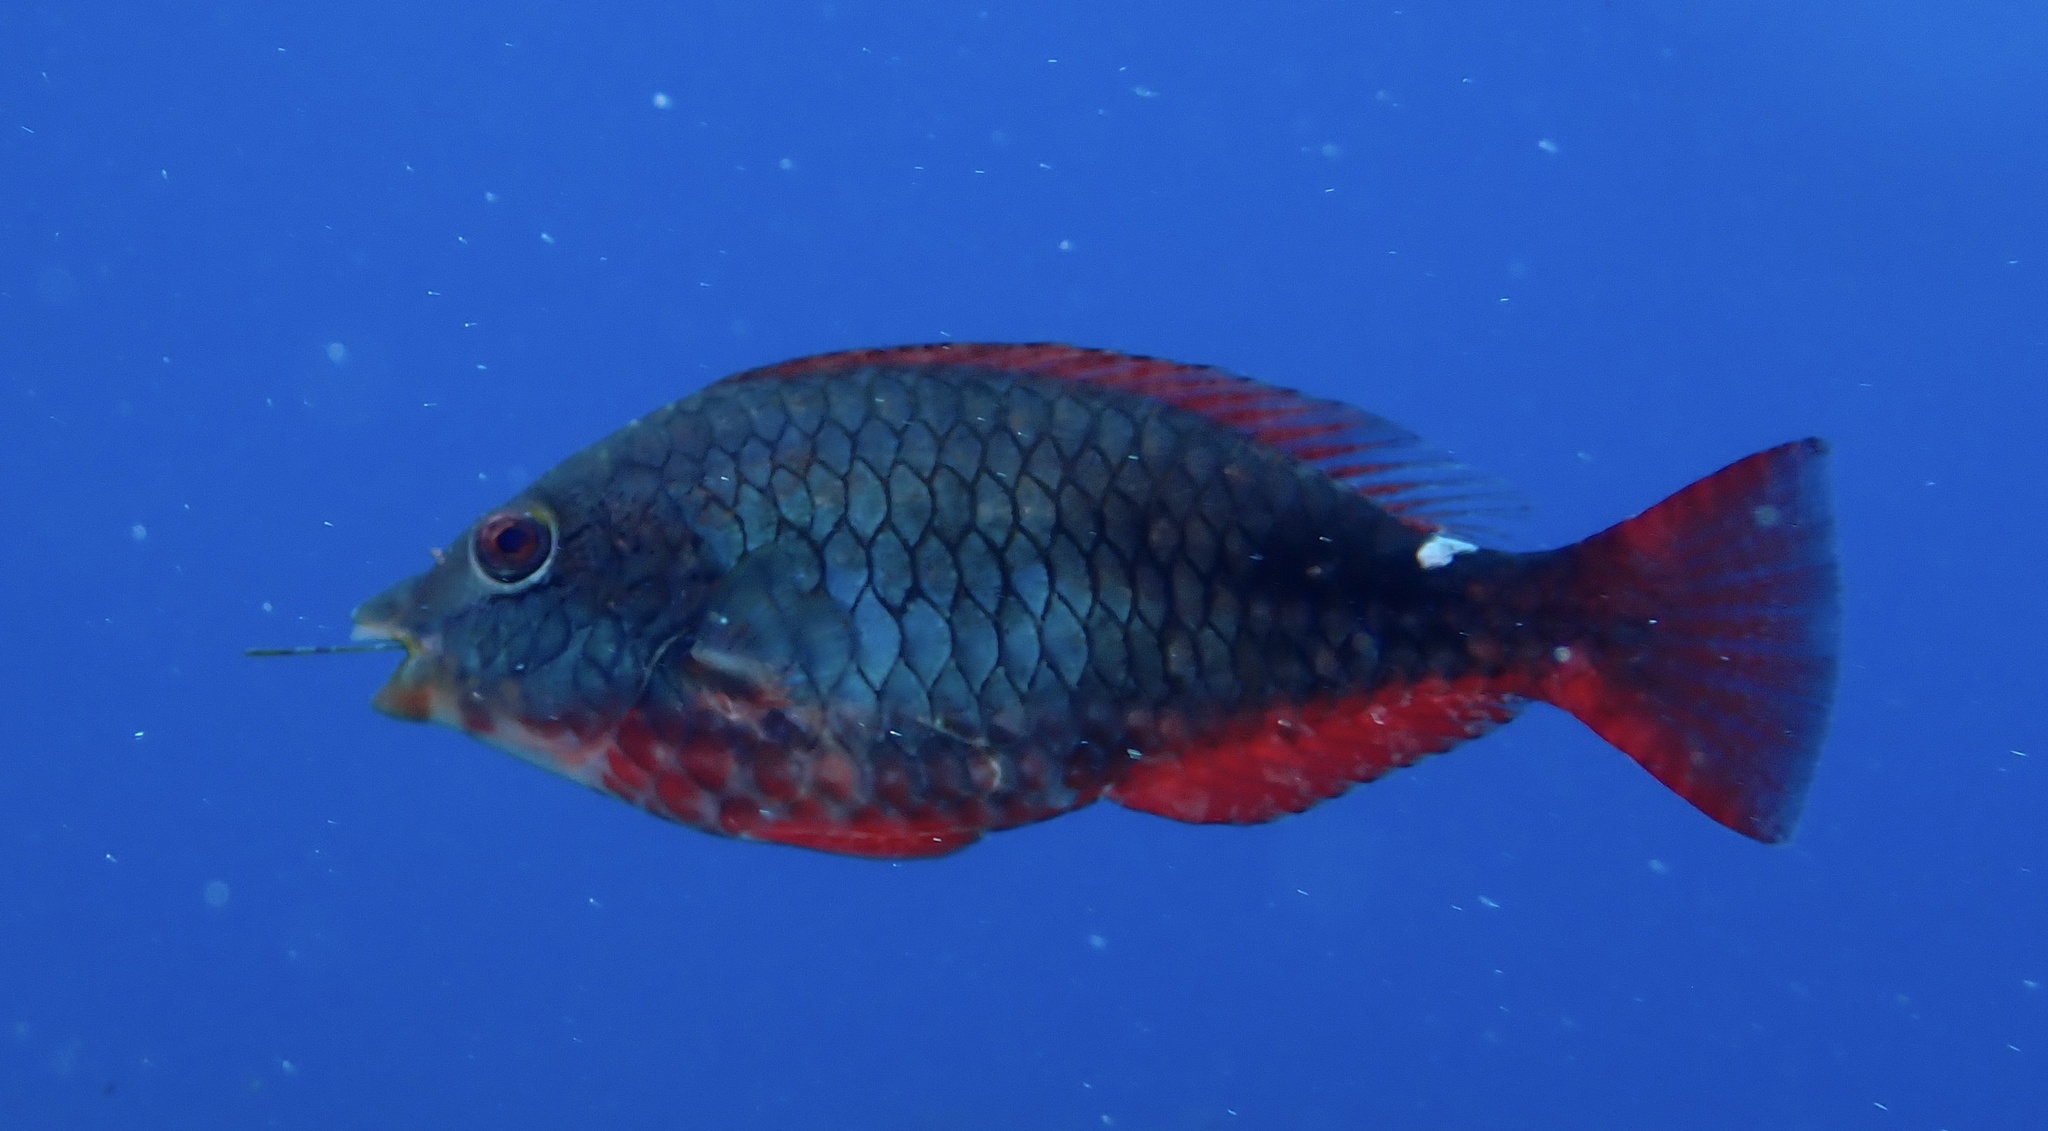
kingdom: Animalia
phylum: Chordata
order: Perciformes
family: Scaridae
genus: Sparisoma
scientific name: Sparisoma aurofrenatum
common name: Redband parrotfish
